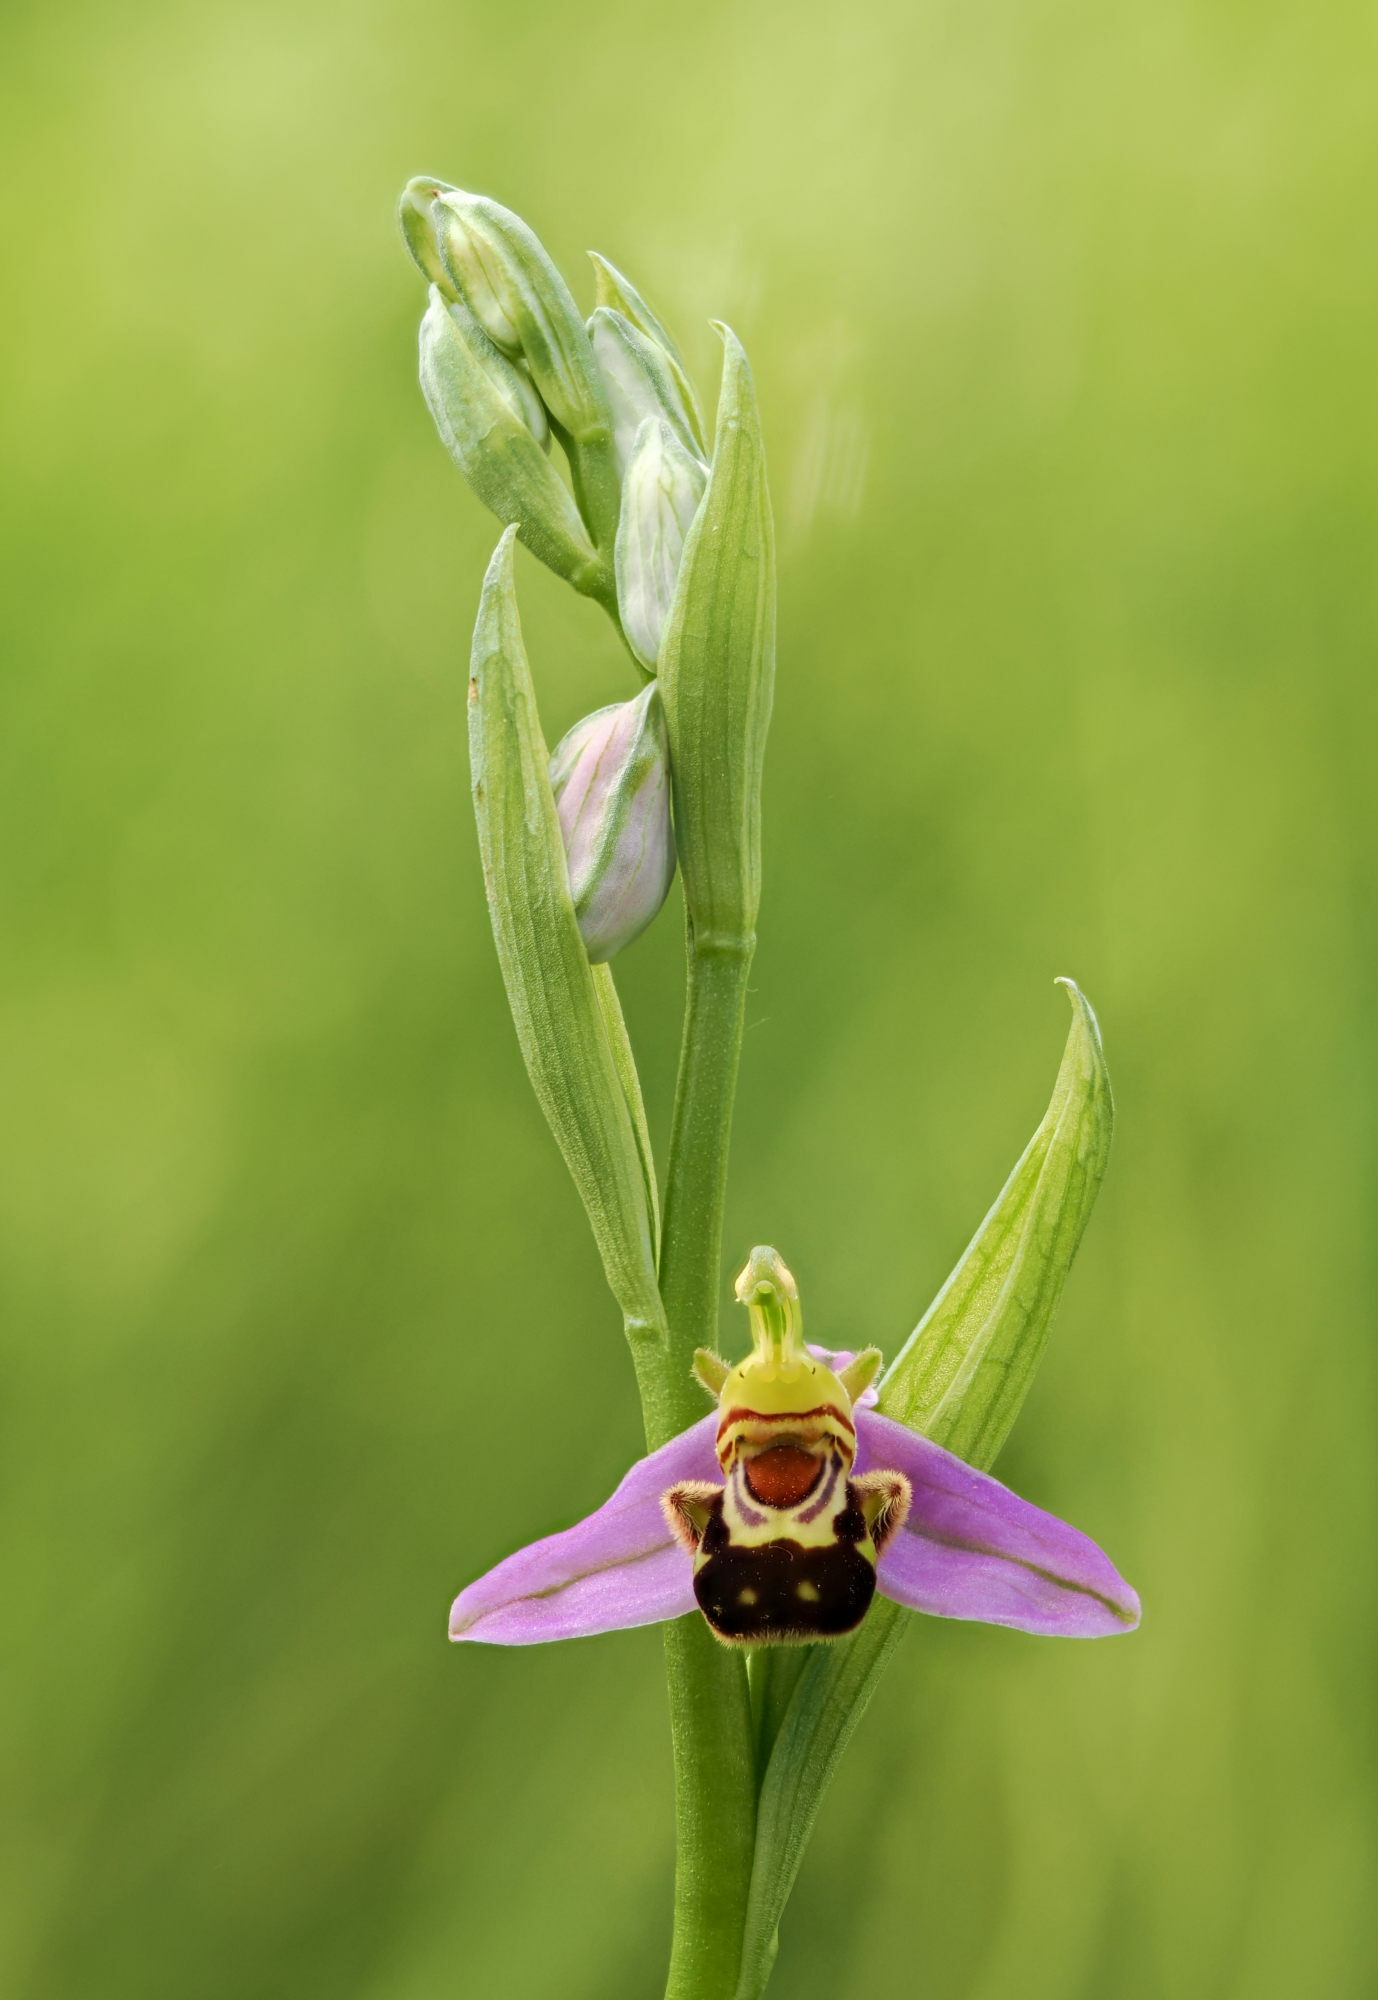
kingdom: Plantae
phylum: Tracheophyta
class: Liliopsida
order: Asparagales
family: Orchidaceae
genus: Ophrys
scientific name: Ophrys apifera
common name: Bee orchid
